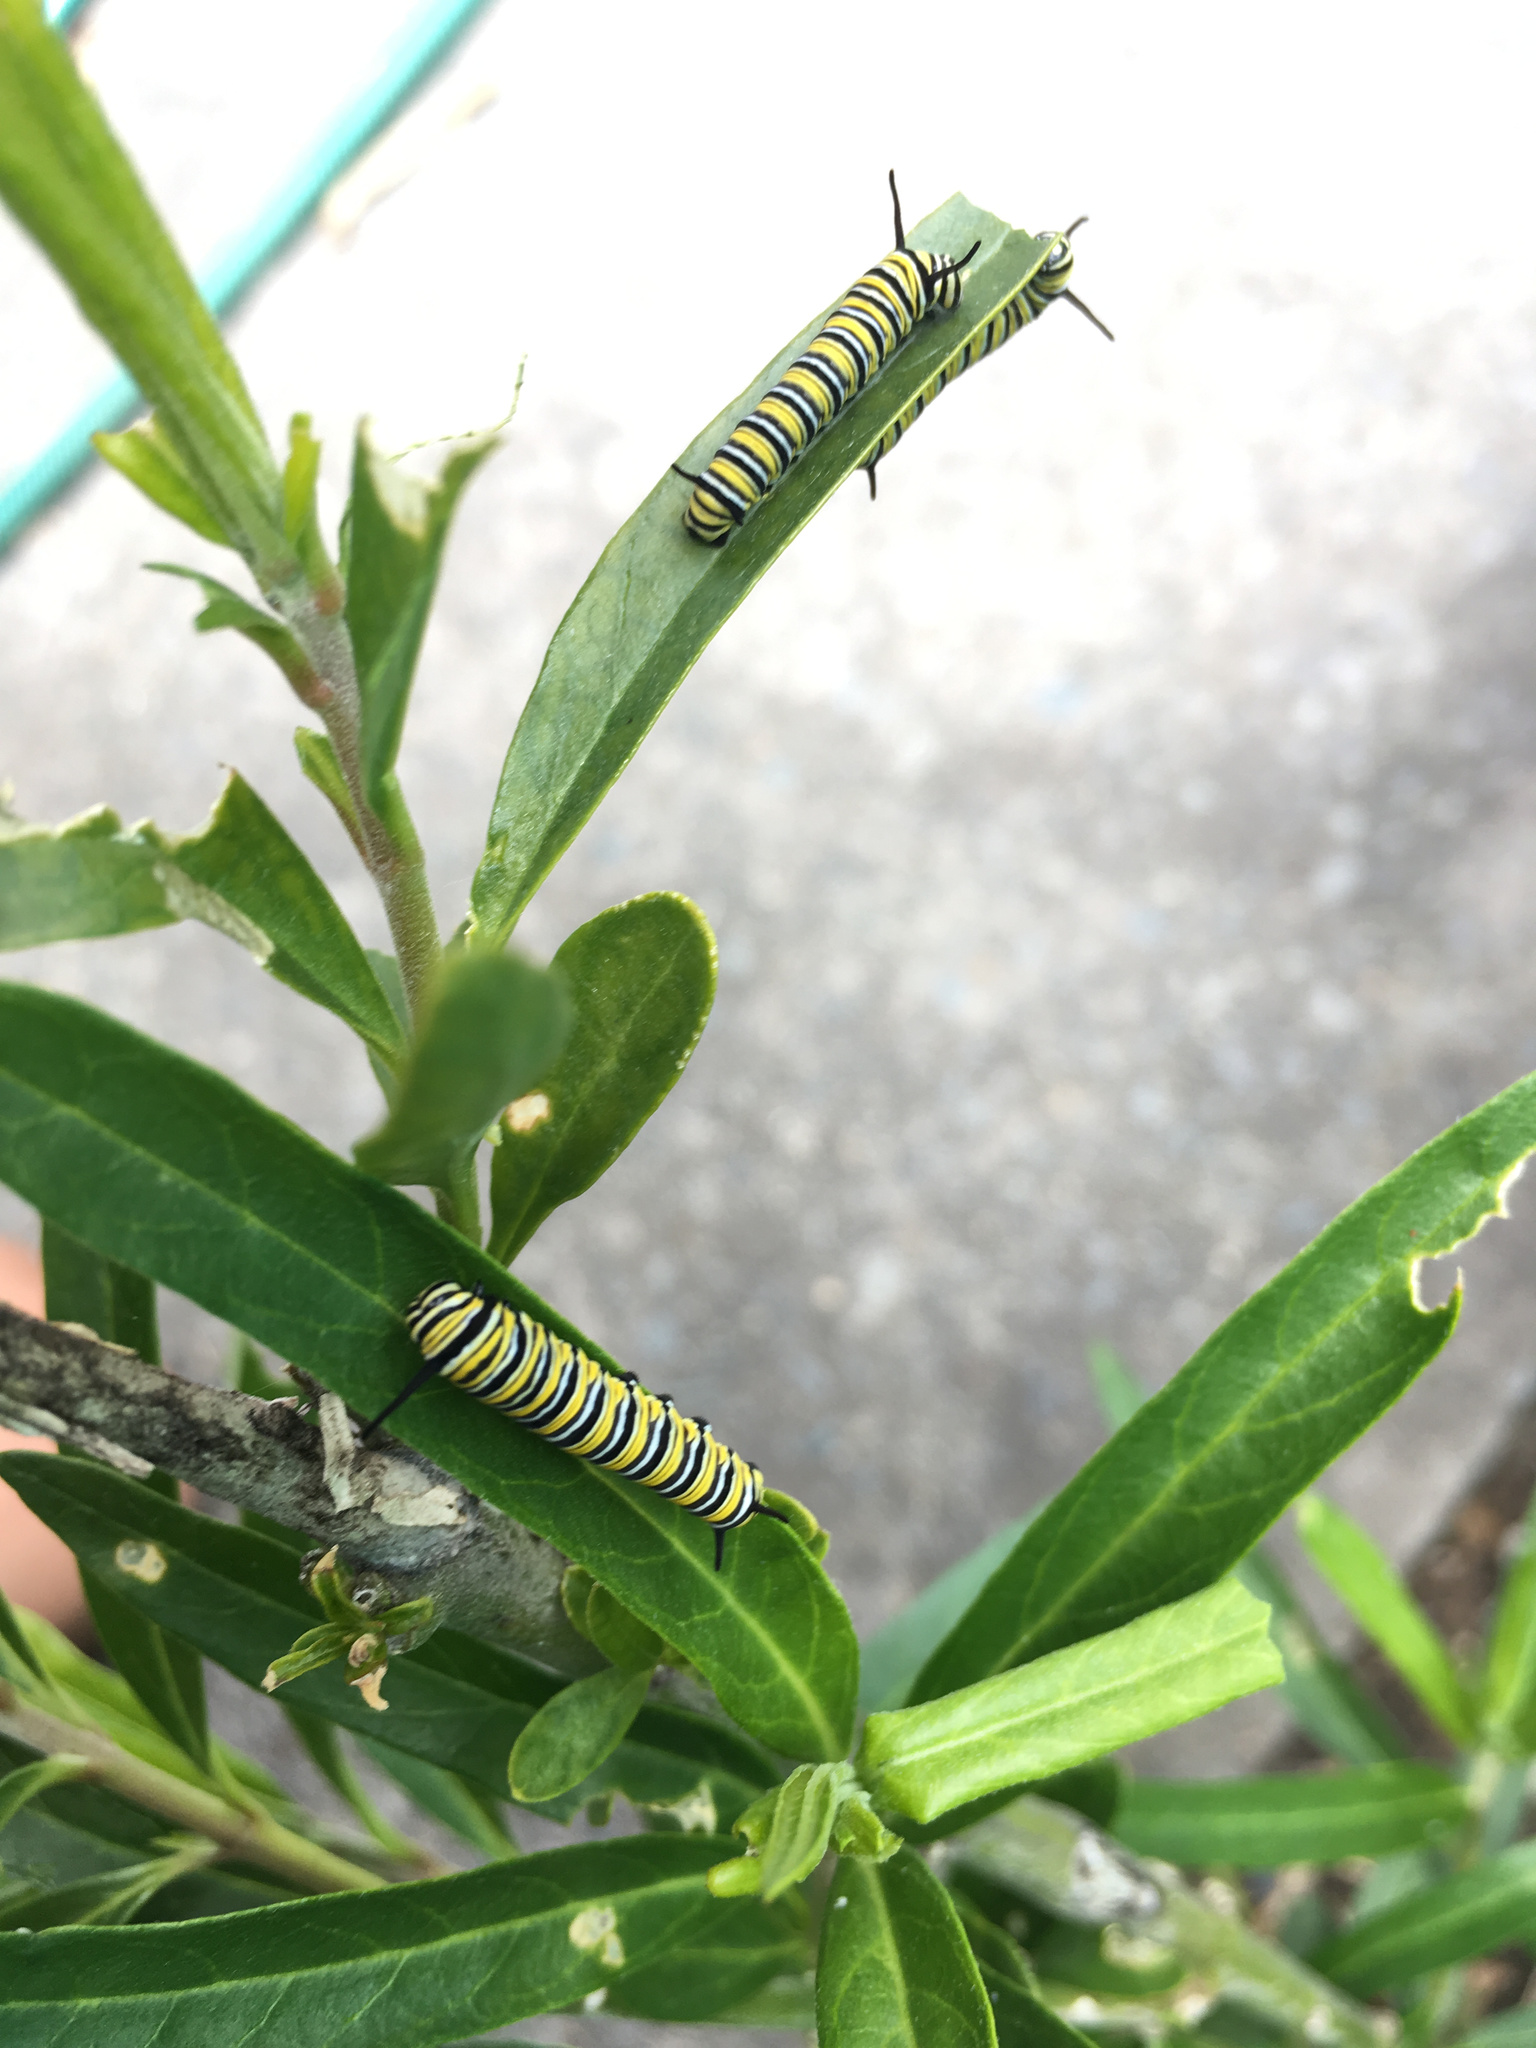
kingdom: Animalia
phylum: Arthropoda
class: Insecta
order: Lepidoptera
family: Nymphalidae
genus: Danaus
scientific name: Danaus plexippus
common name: Monarch
